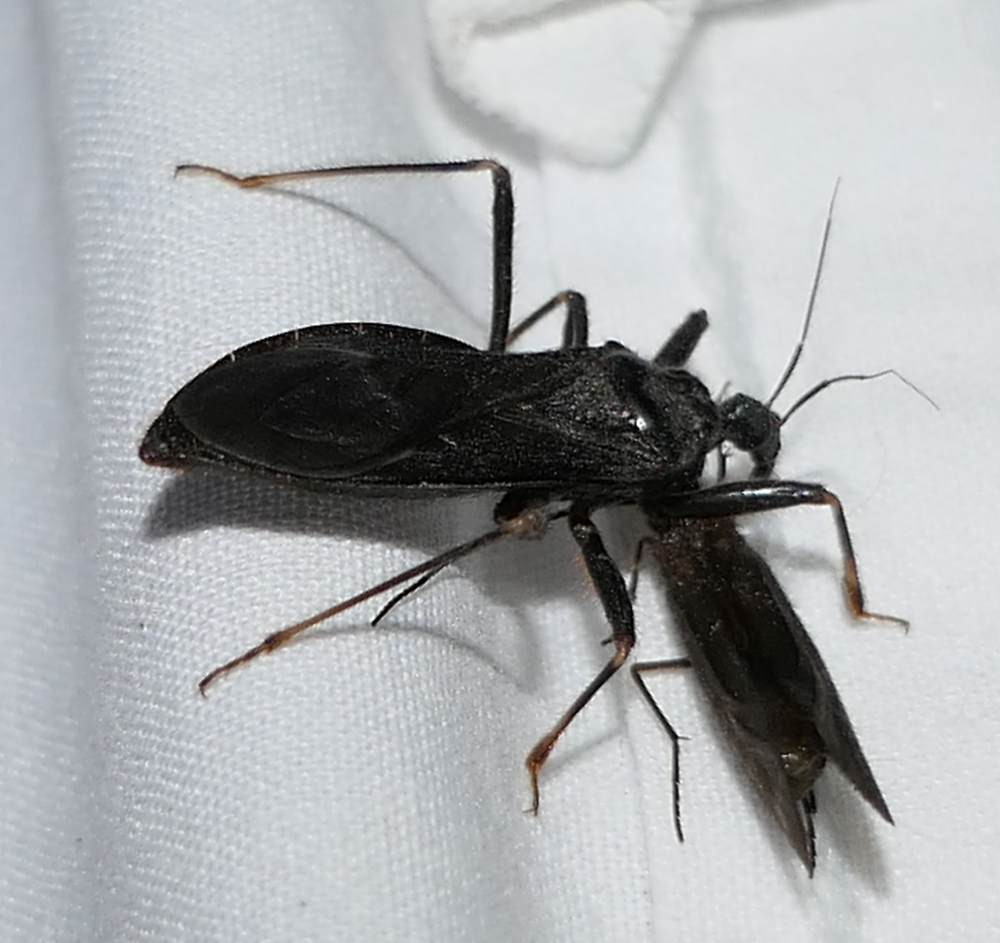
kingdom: Animalia
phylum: Arthropoda
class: Insecta
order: Hemiptera
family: Reduviidae
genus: Reduvius
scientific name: Reduvius personatus
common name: Masked hunter
